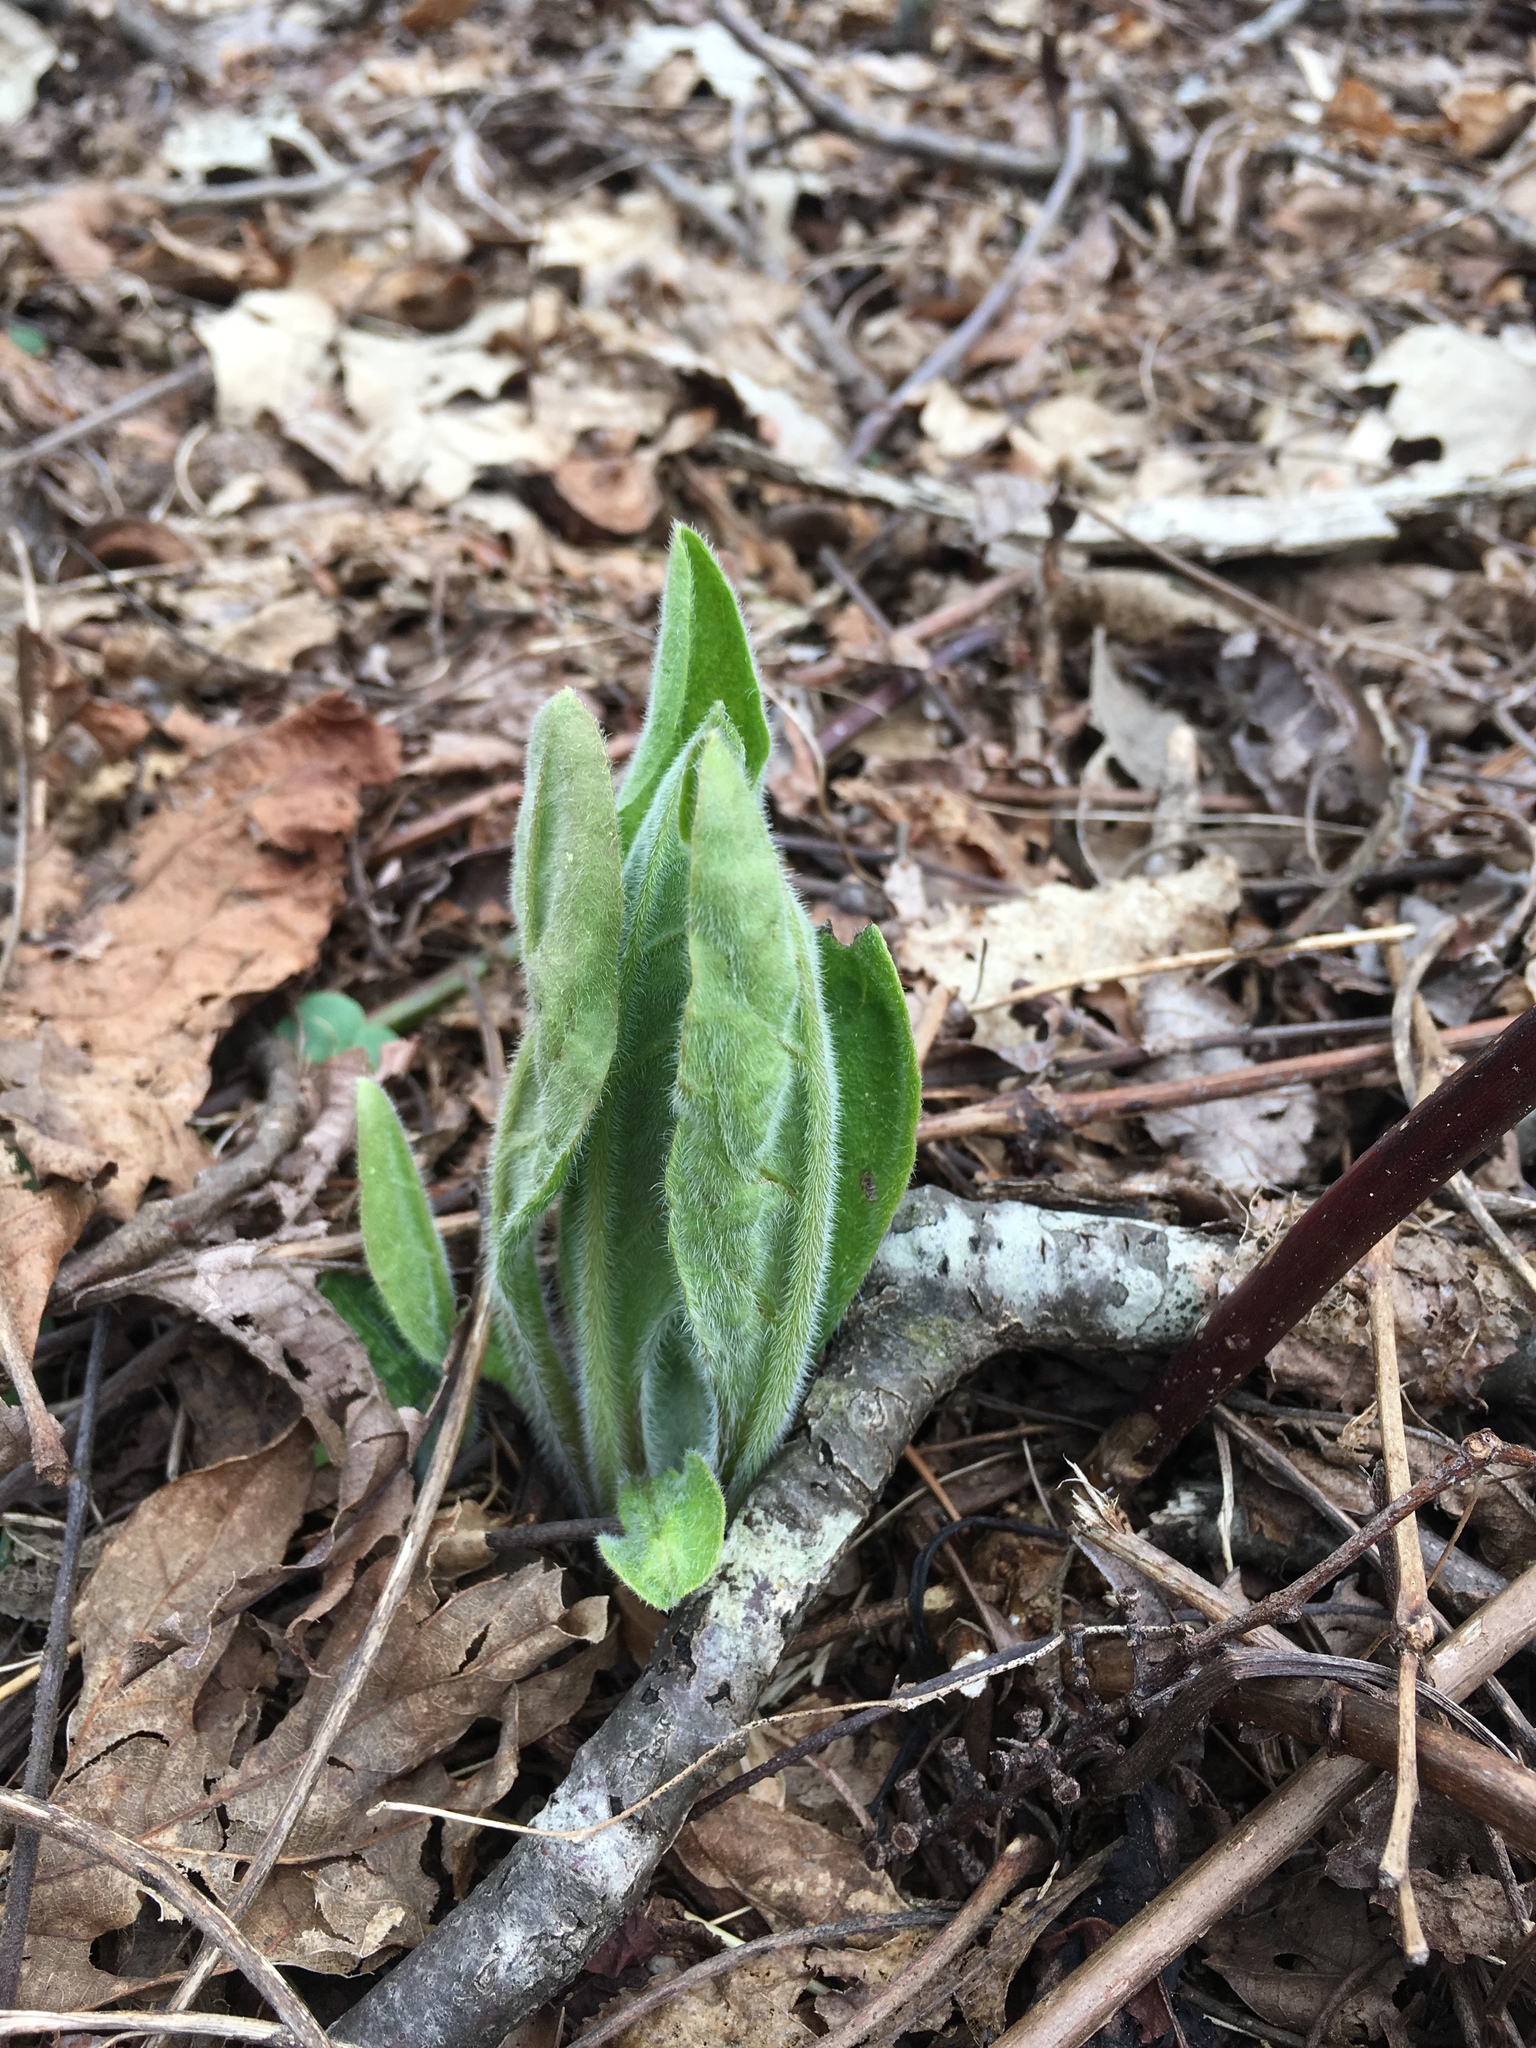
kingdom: Plantae
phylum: Tracheophyta
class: Magnoliopsida
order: Boraginales
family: Boraginaceae
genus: Andersonglossum
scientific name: Andersonglossum virginianum
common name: Wild comfrey
